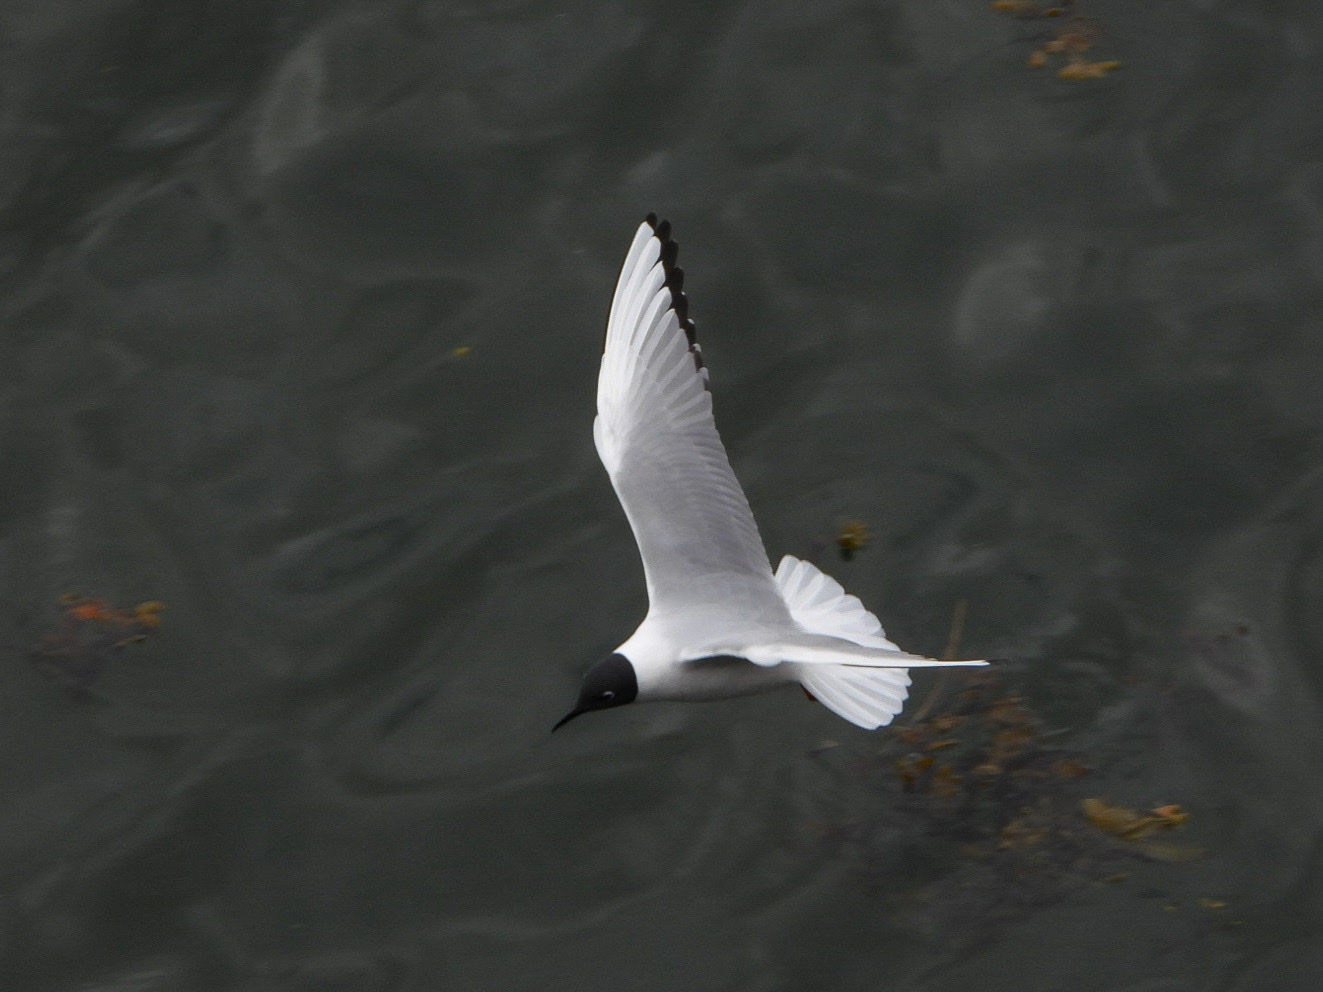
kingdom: Animalia
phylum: Chordata
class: Aves
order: Charadriiformes
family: Laridae
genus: Chroicocephalus
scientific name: Chroicocephalus philadelphia
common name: Bonaparte's gull
